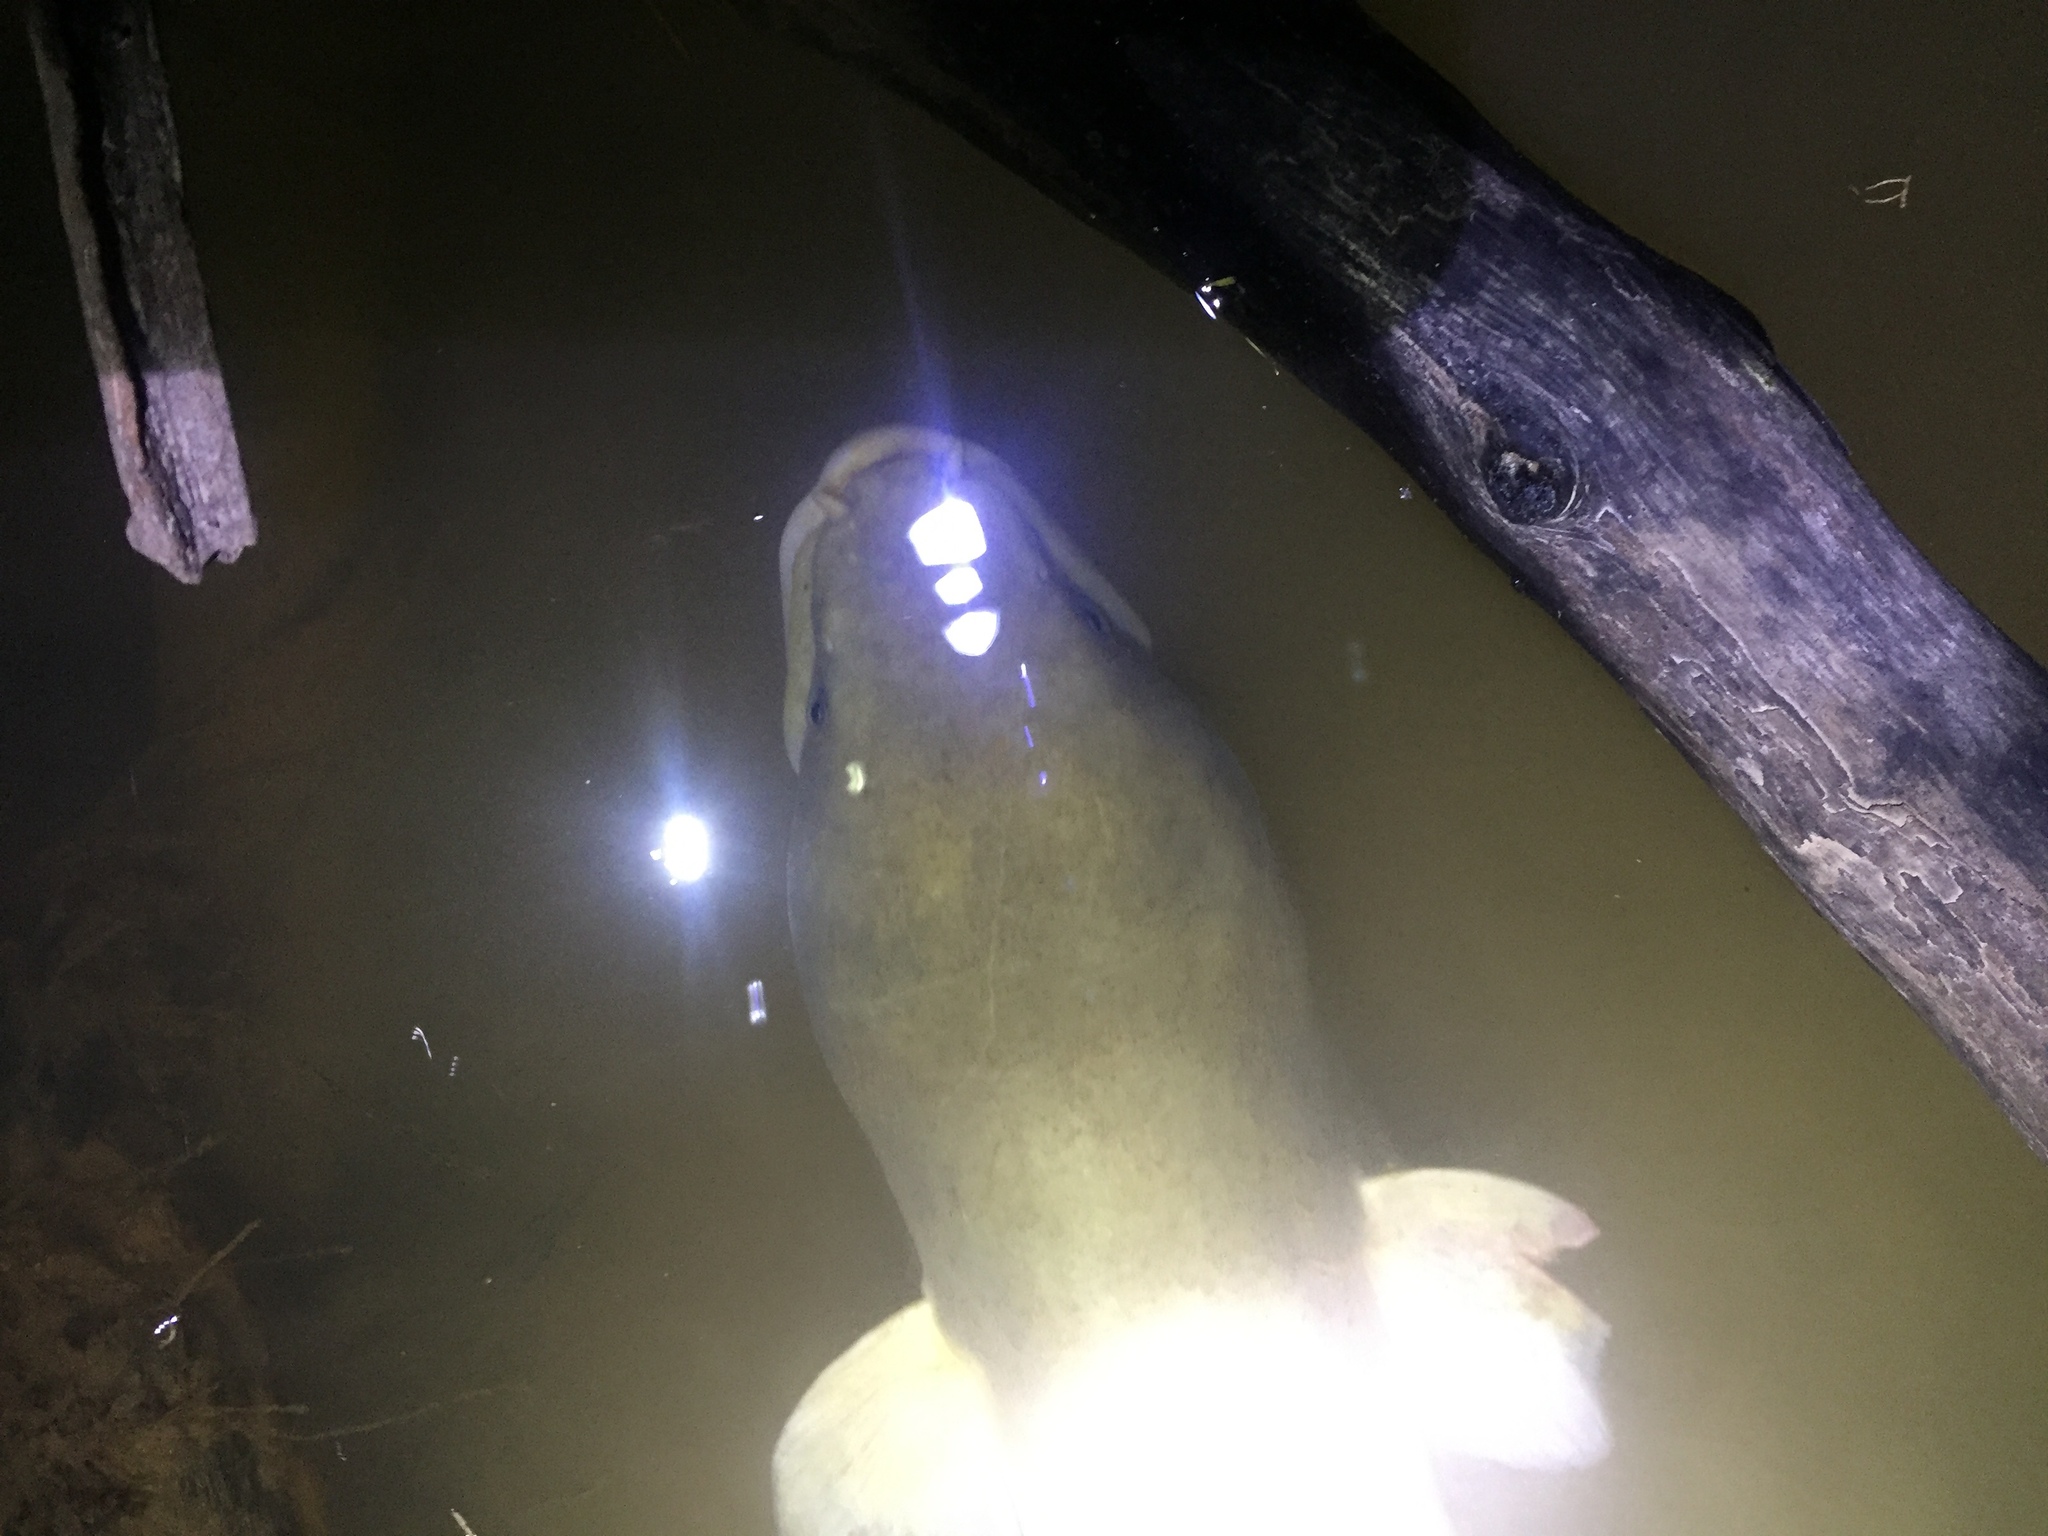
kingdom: Animalia
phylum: Chordata
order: Anguilliformes
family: Anguillidae
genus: Anguilla
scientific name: Anguilla dieffenbachii
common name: New zealand longfin eel
